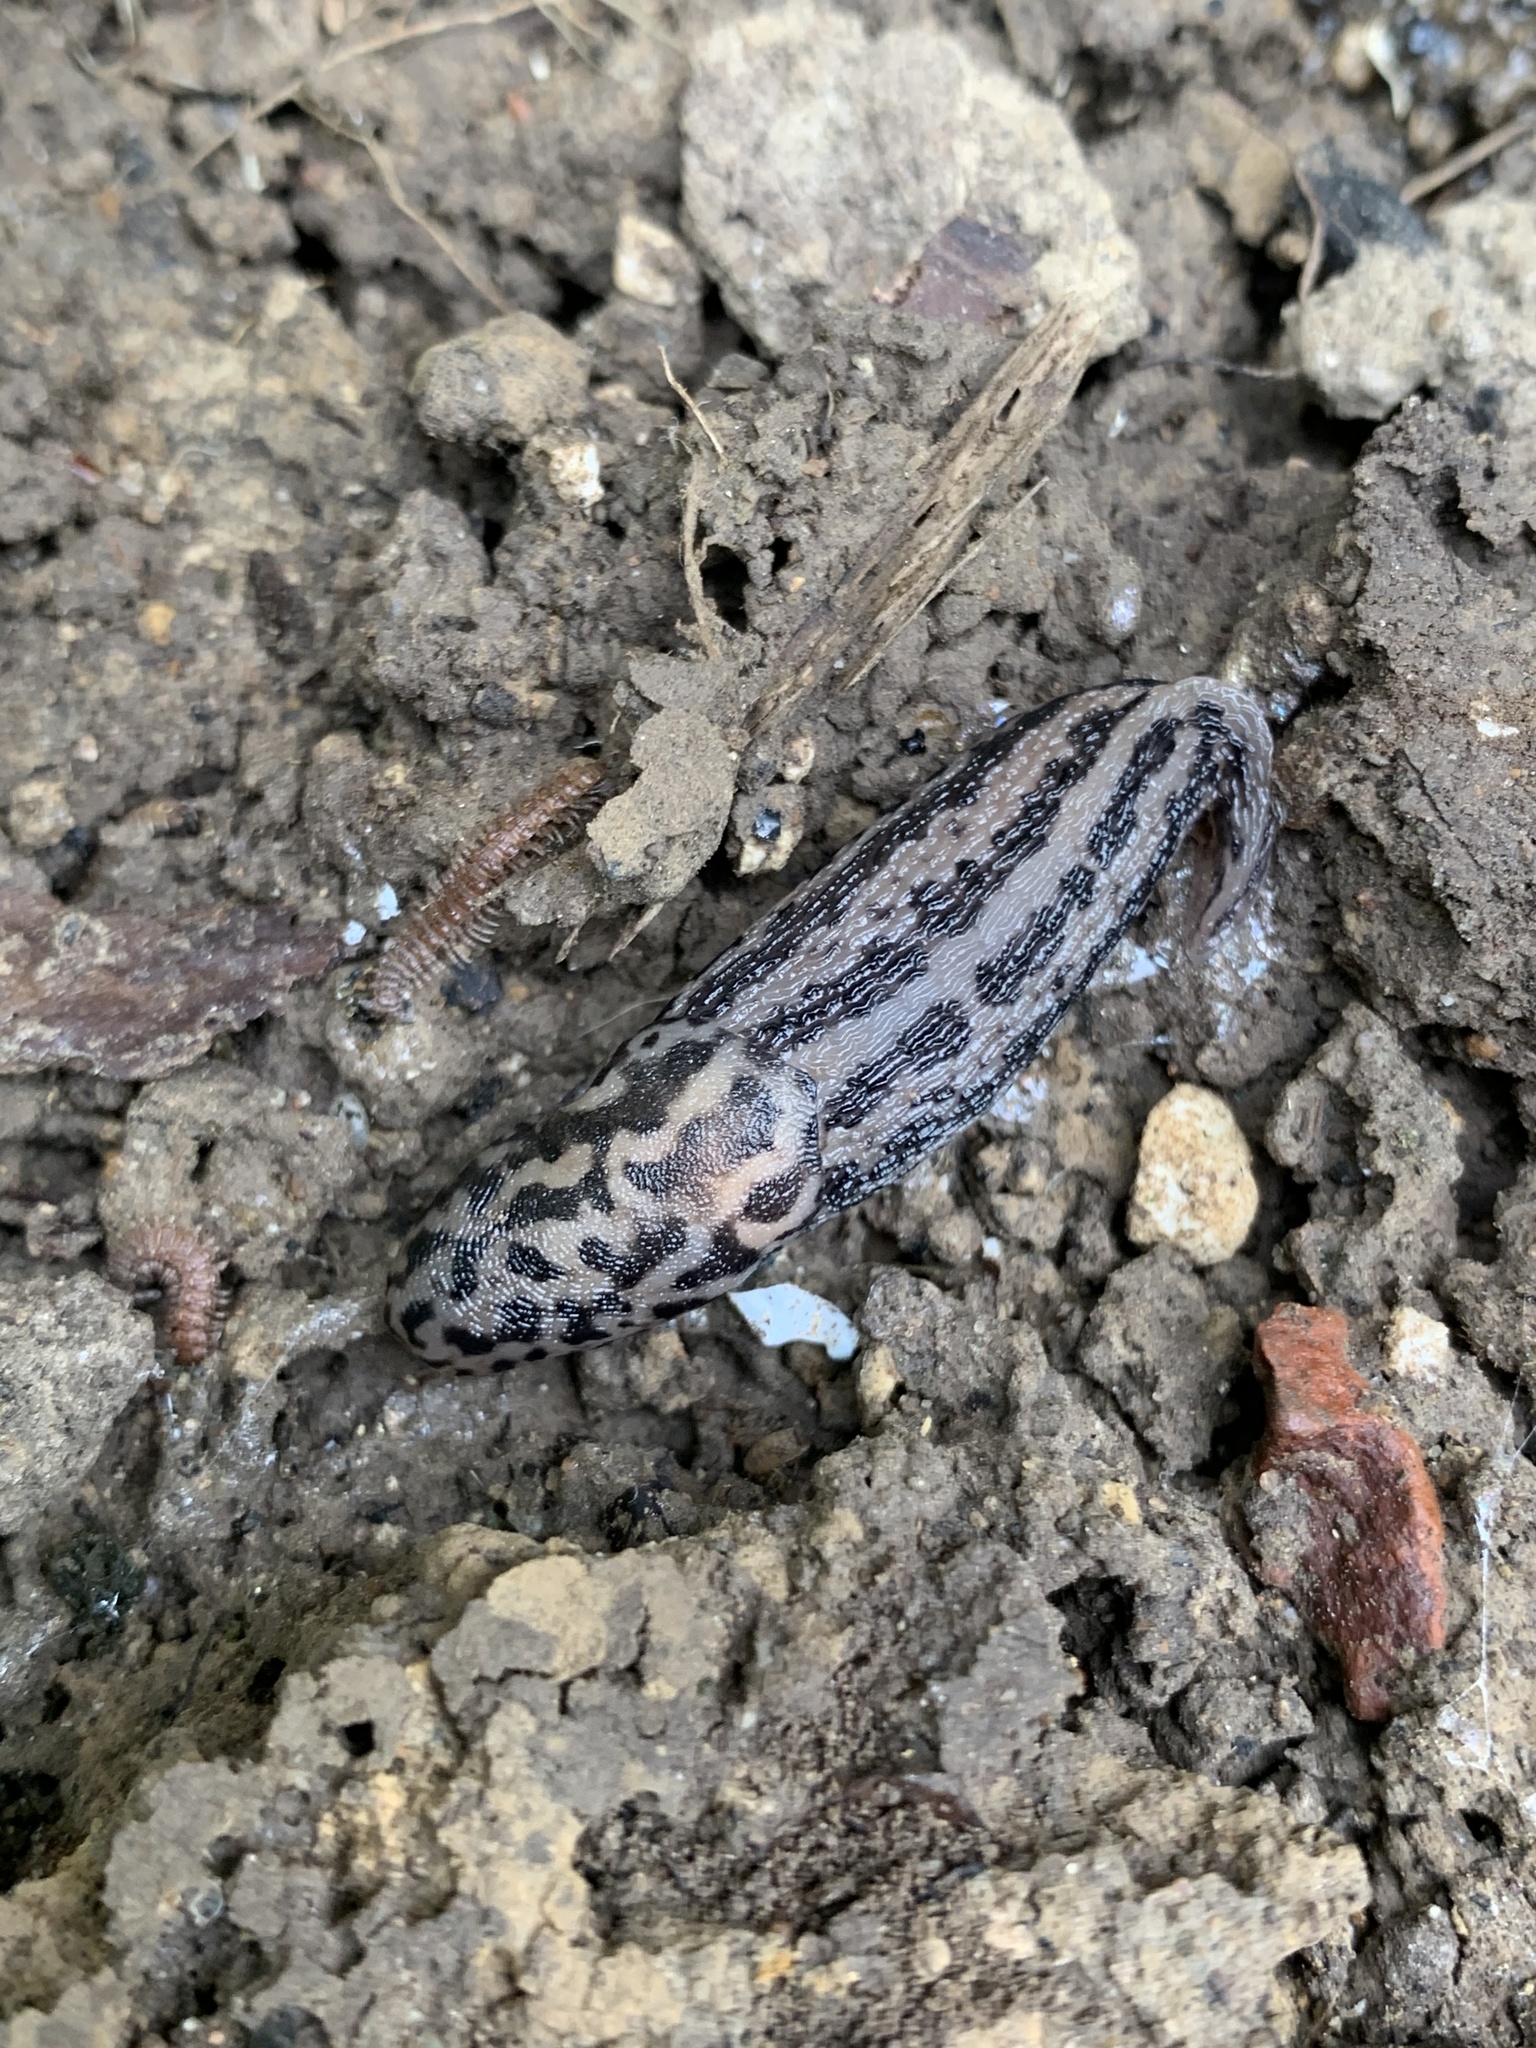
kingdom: Animalia
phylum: Mollusca
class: Gastropoda
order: Stylommatophora
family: Limacidae
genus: Limax
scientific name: Limax maximus
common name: Great grey slug
